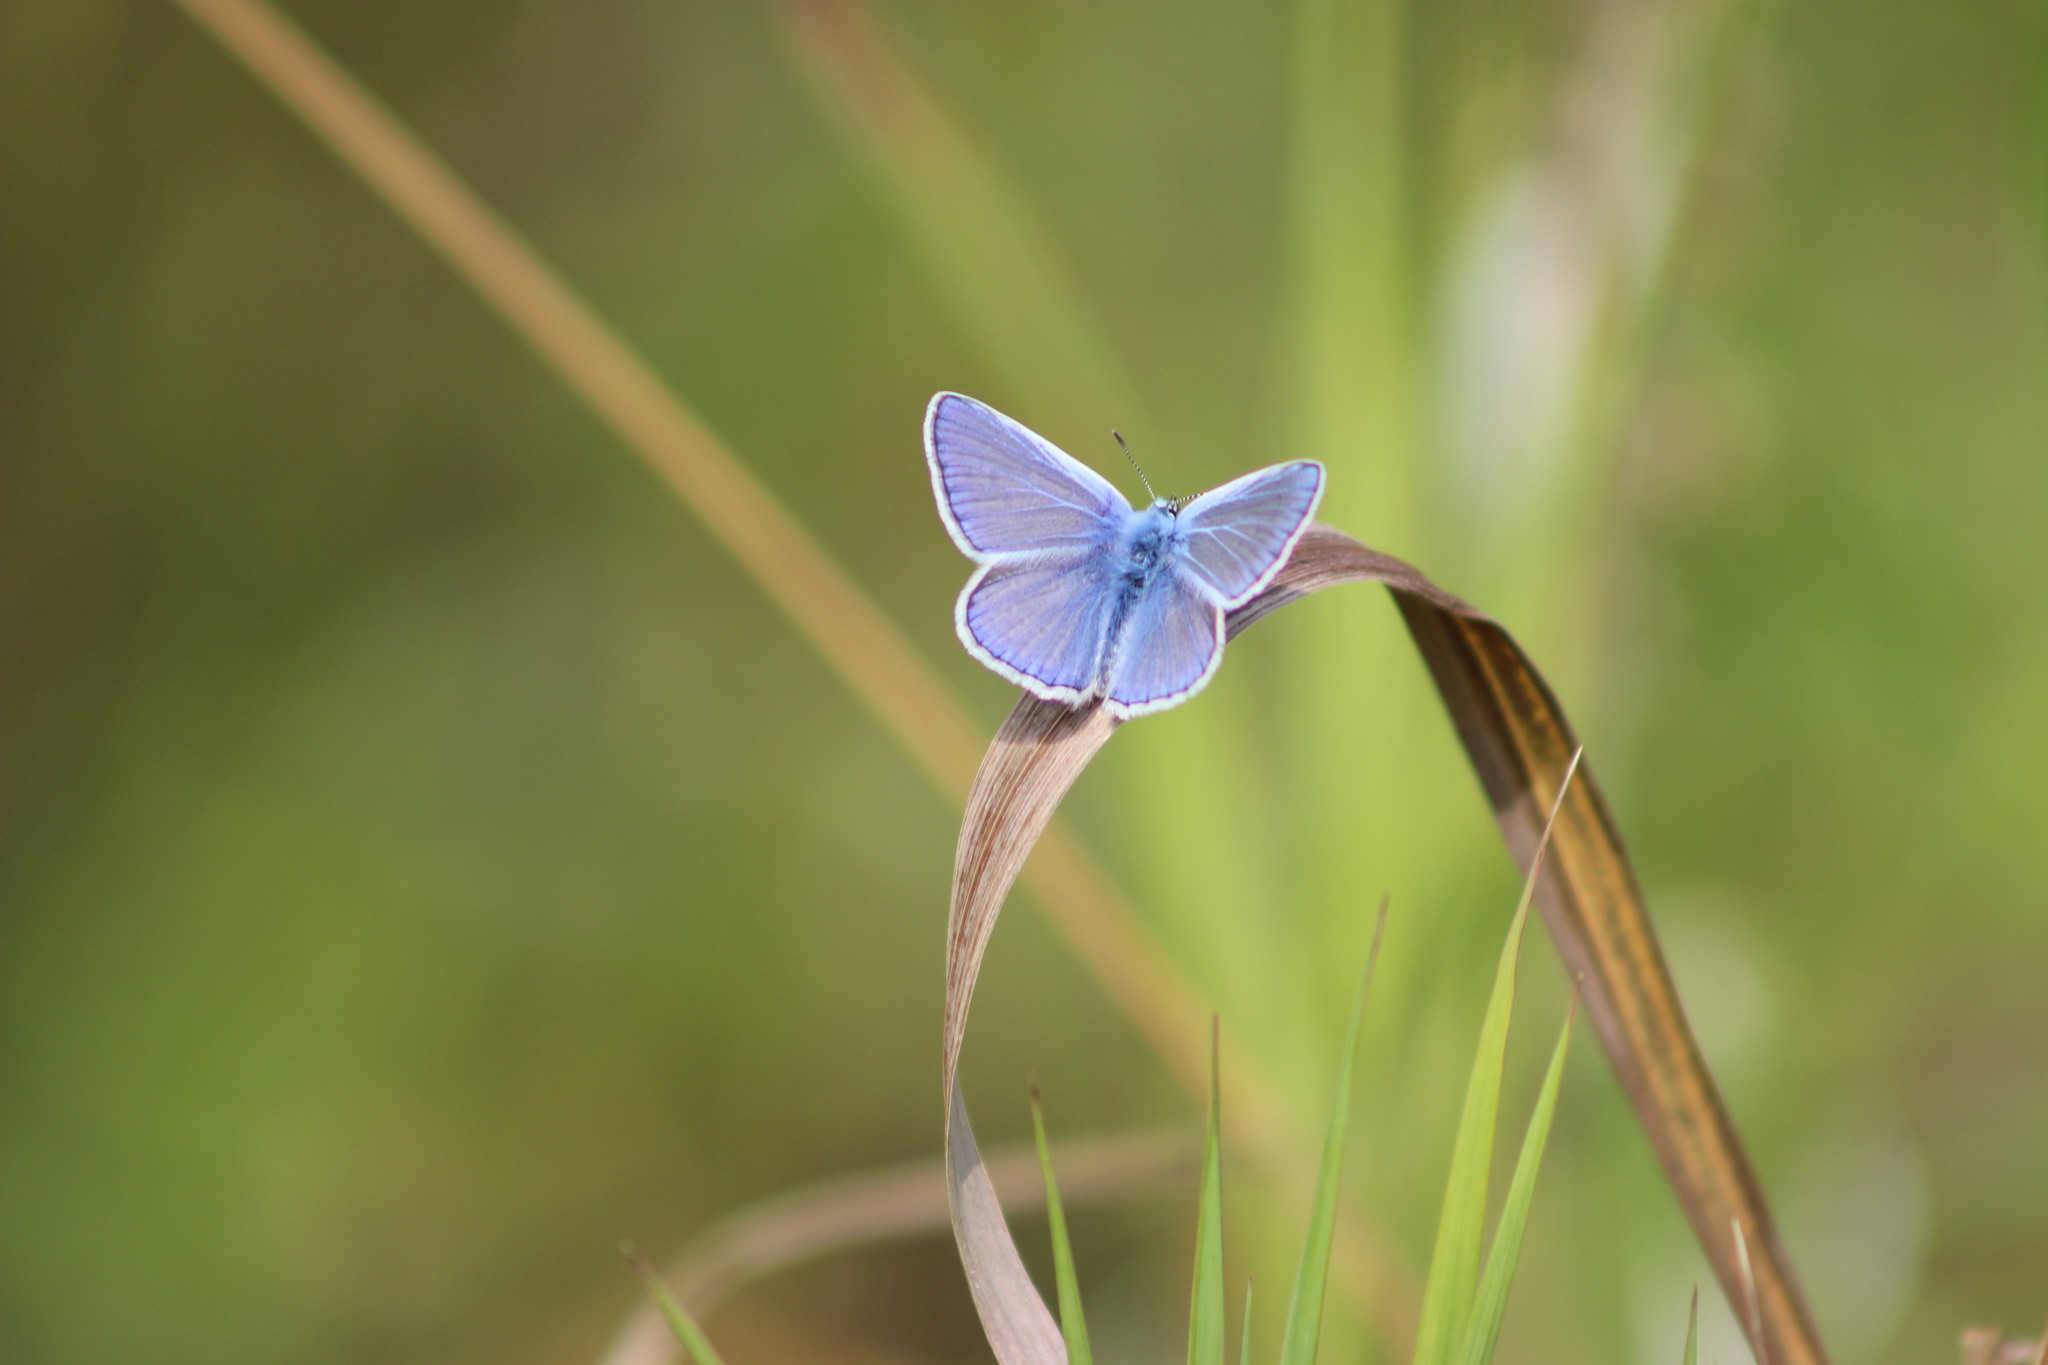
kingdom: Animalia
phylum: Arthropoda
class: Insecta
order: Lepidoptera
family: Lycaenidae
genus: Polyommatus
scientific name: Polyommatus icarus
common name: Common blue
